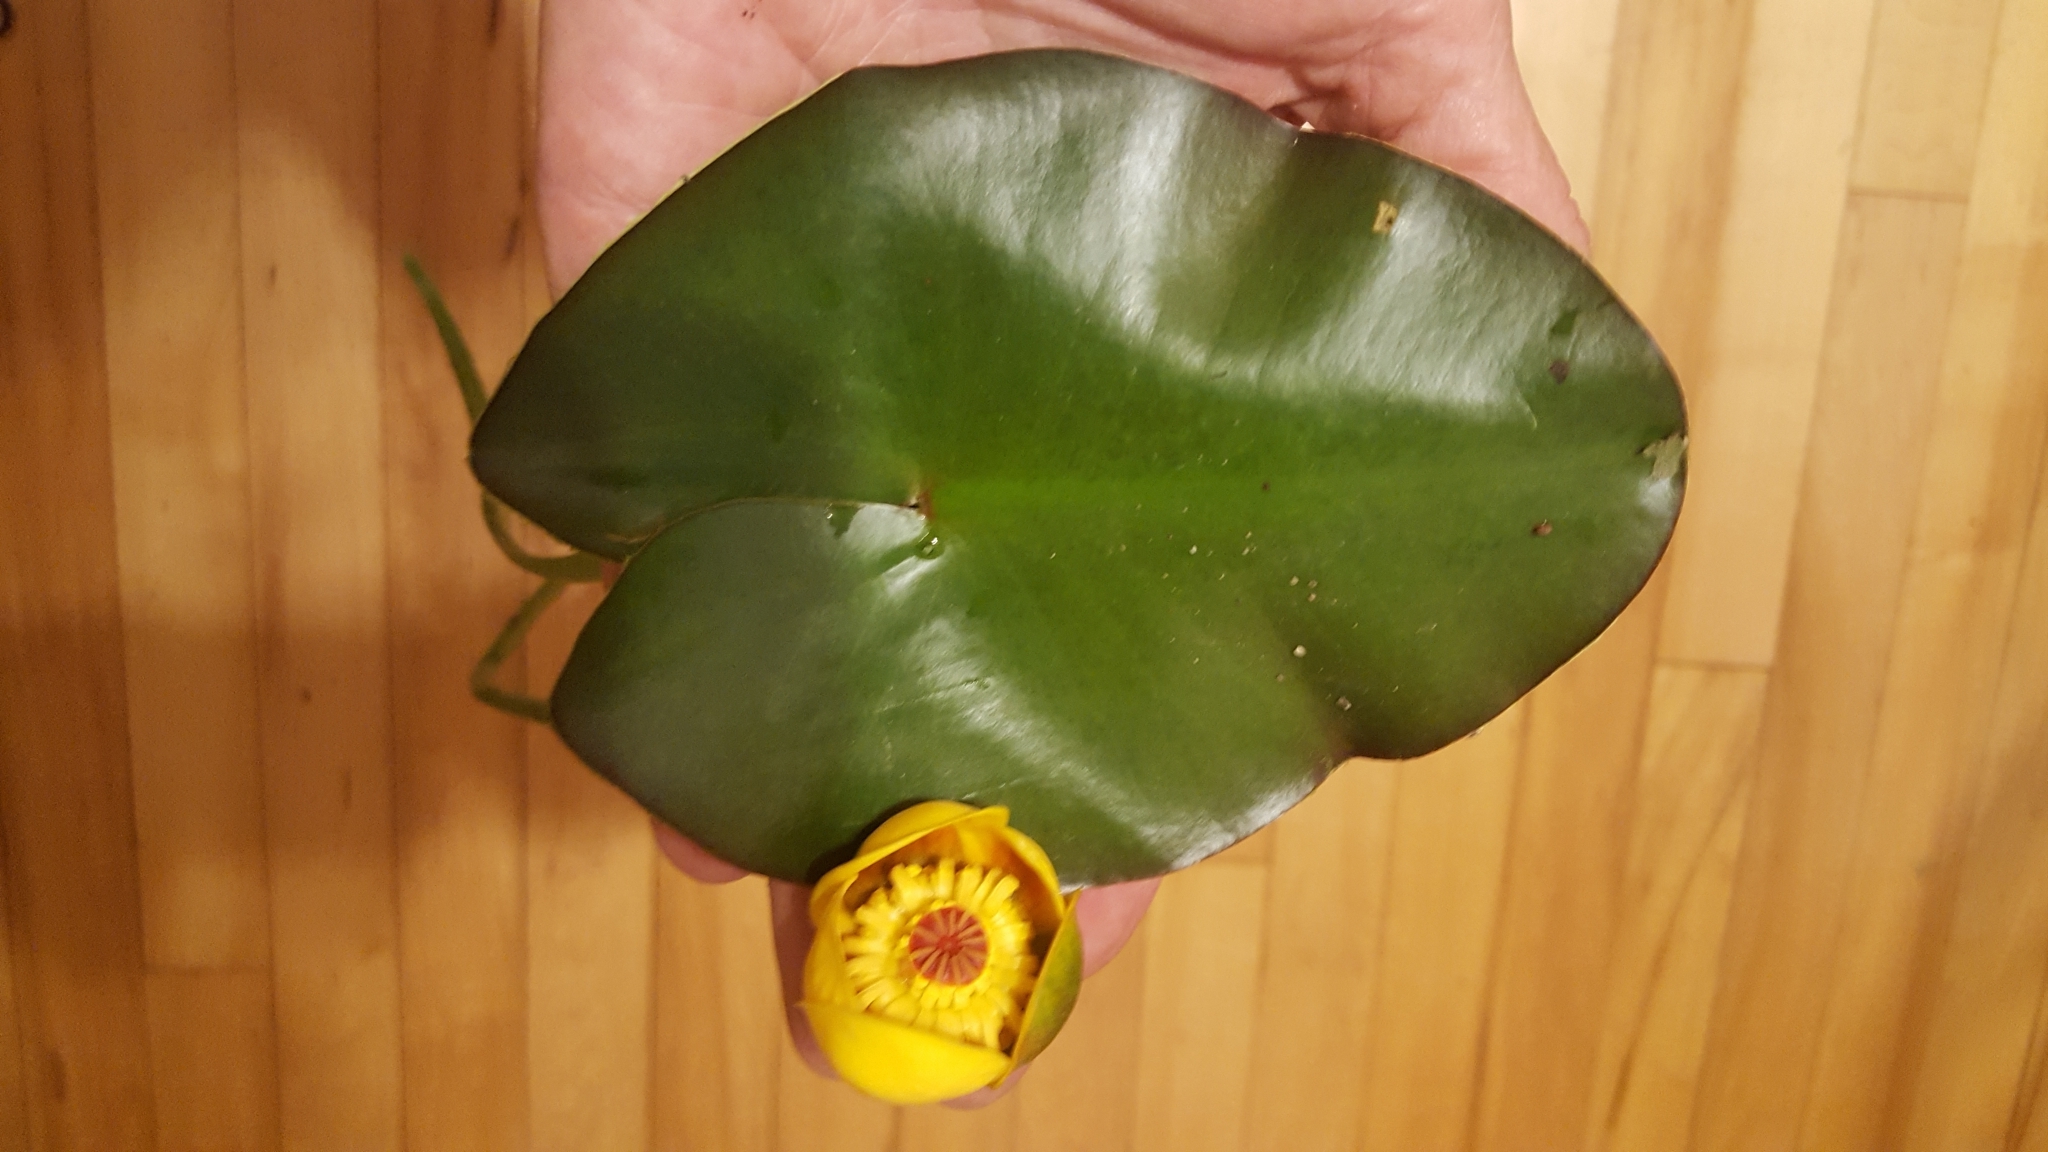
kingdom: Plantae
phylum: Tracheophyta
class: Magnoliopsida
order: Nymphaeales
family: Nymphaeaceae
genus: Nuphar
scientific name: Nuphar rubrodisca
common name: Yellow pond-lily
